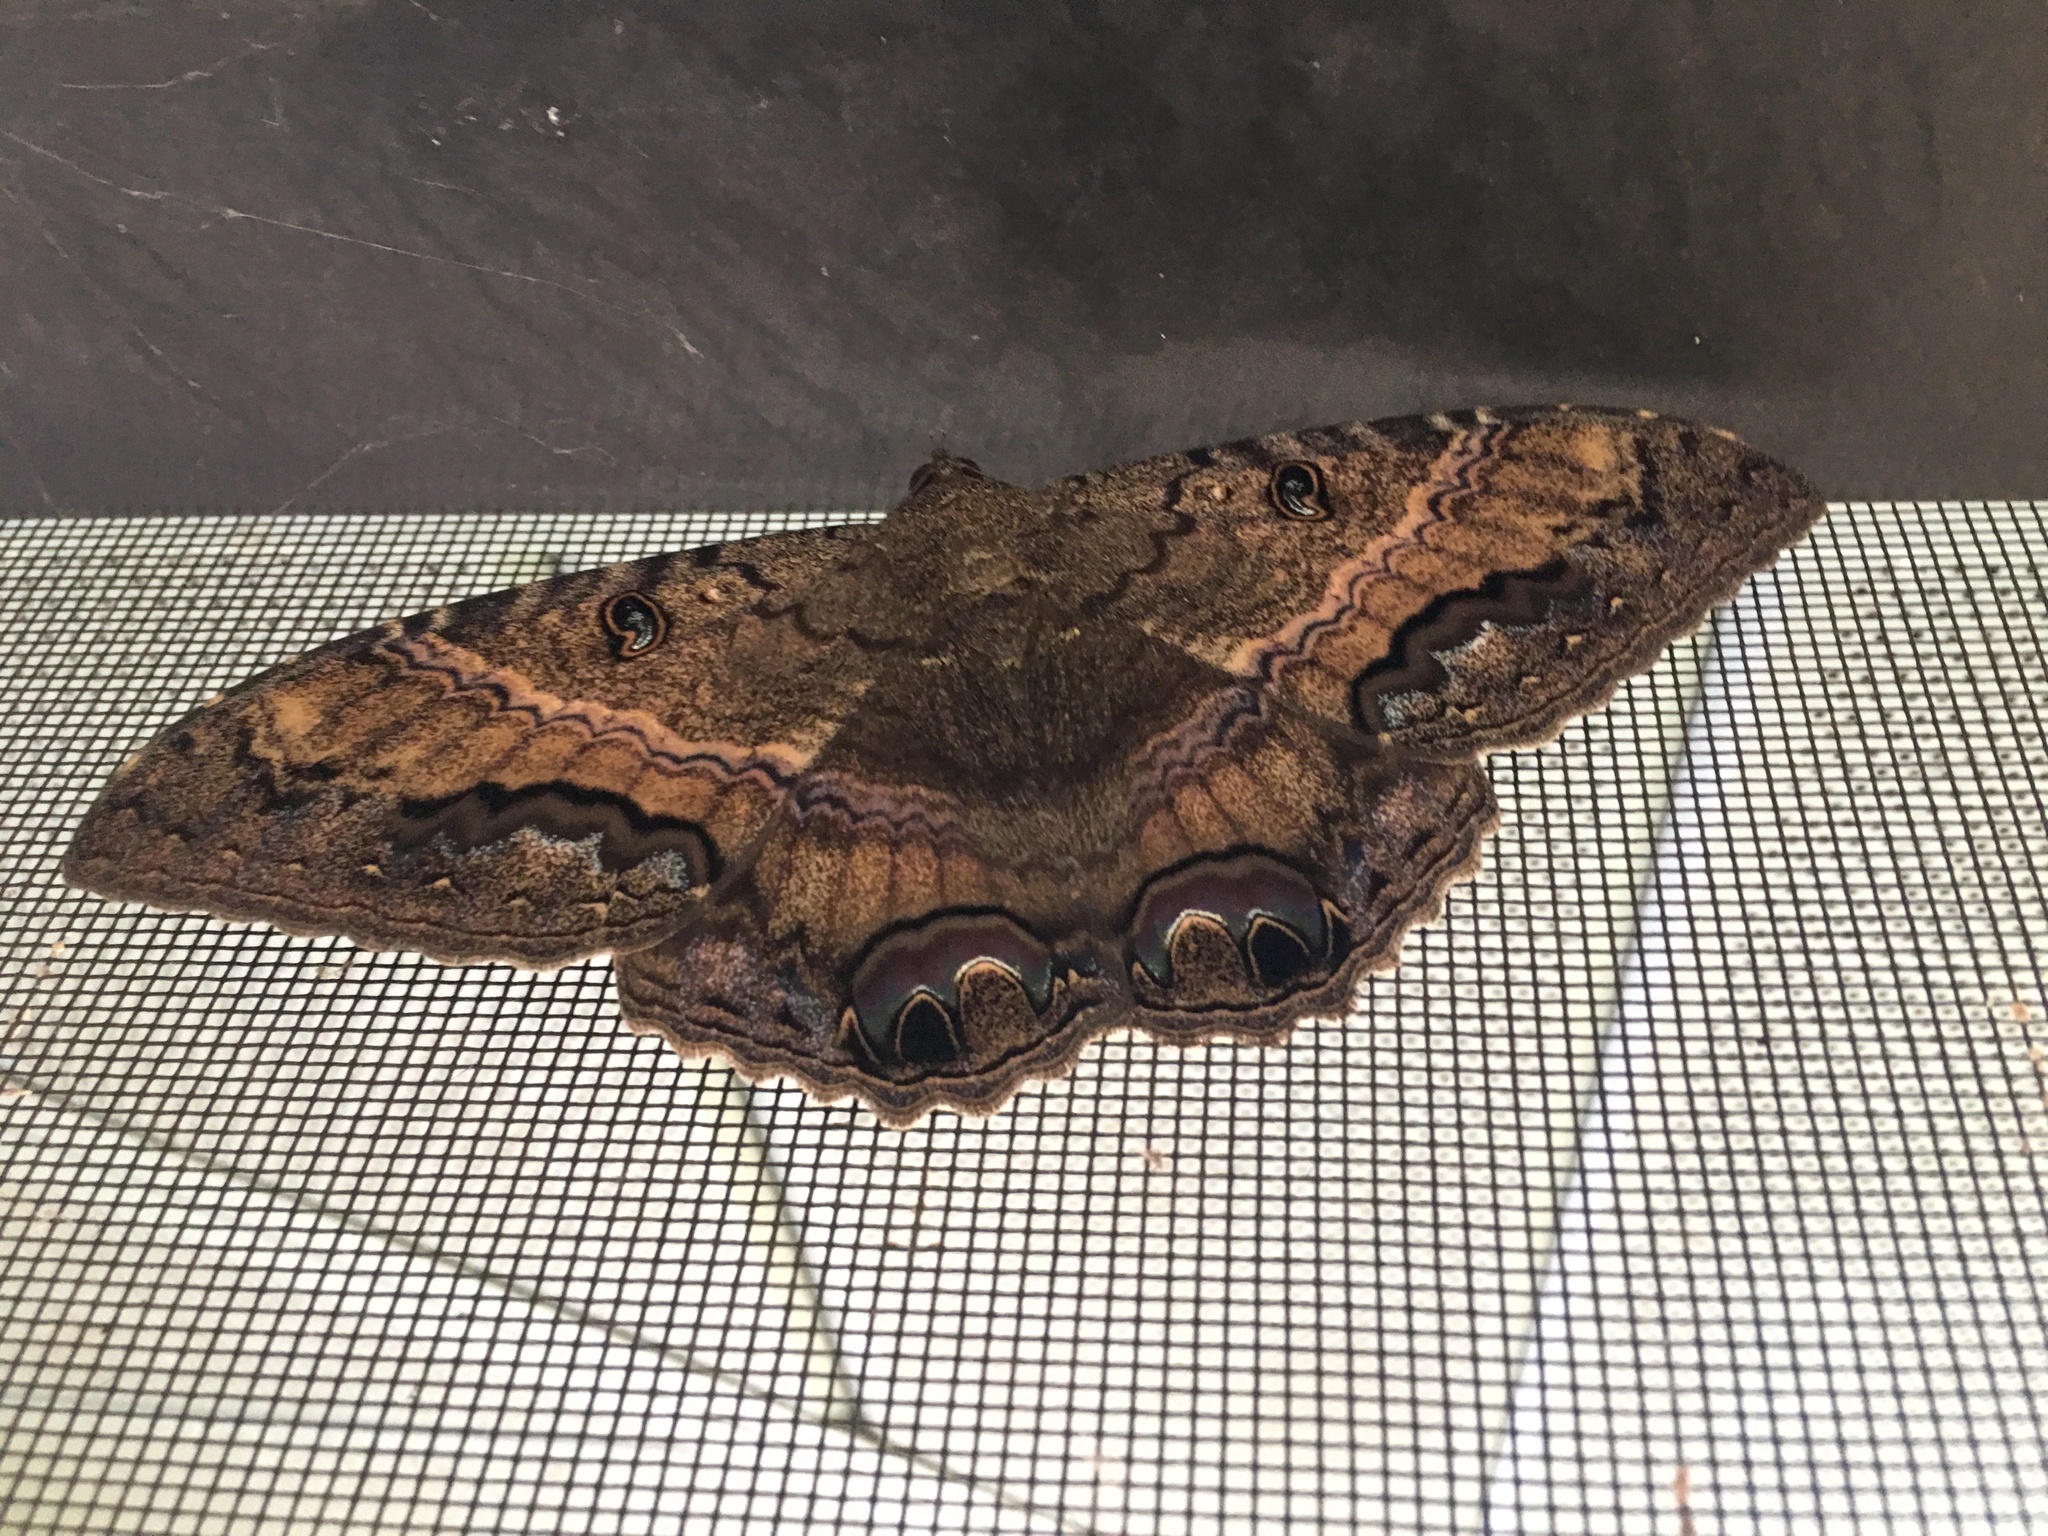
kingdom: Animalia
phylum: Arthropoda
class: Insecta
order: Lepidoptera
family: Erebidae
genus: Ascalapha
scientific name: Ascalapha odorata
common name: Black witch
